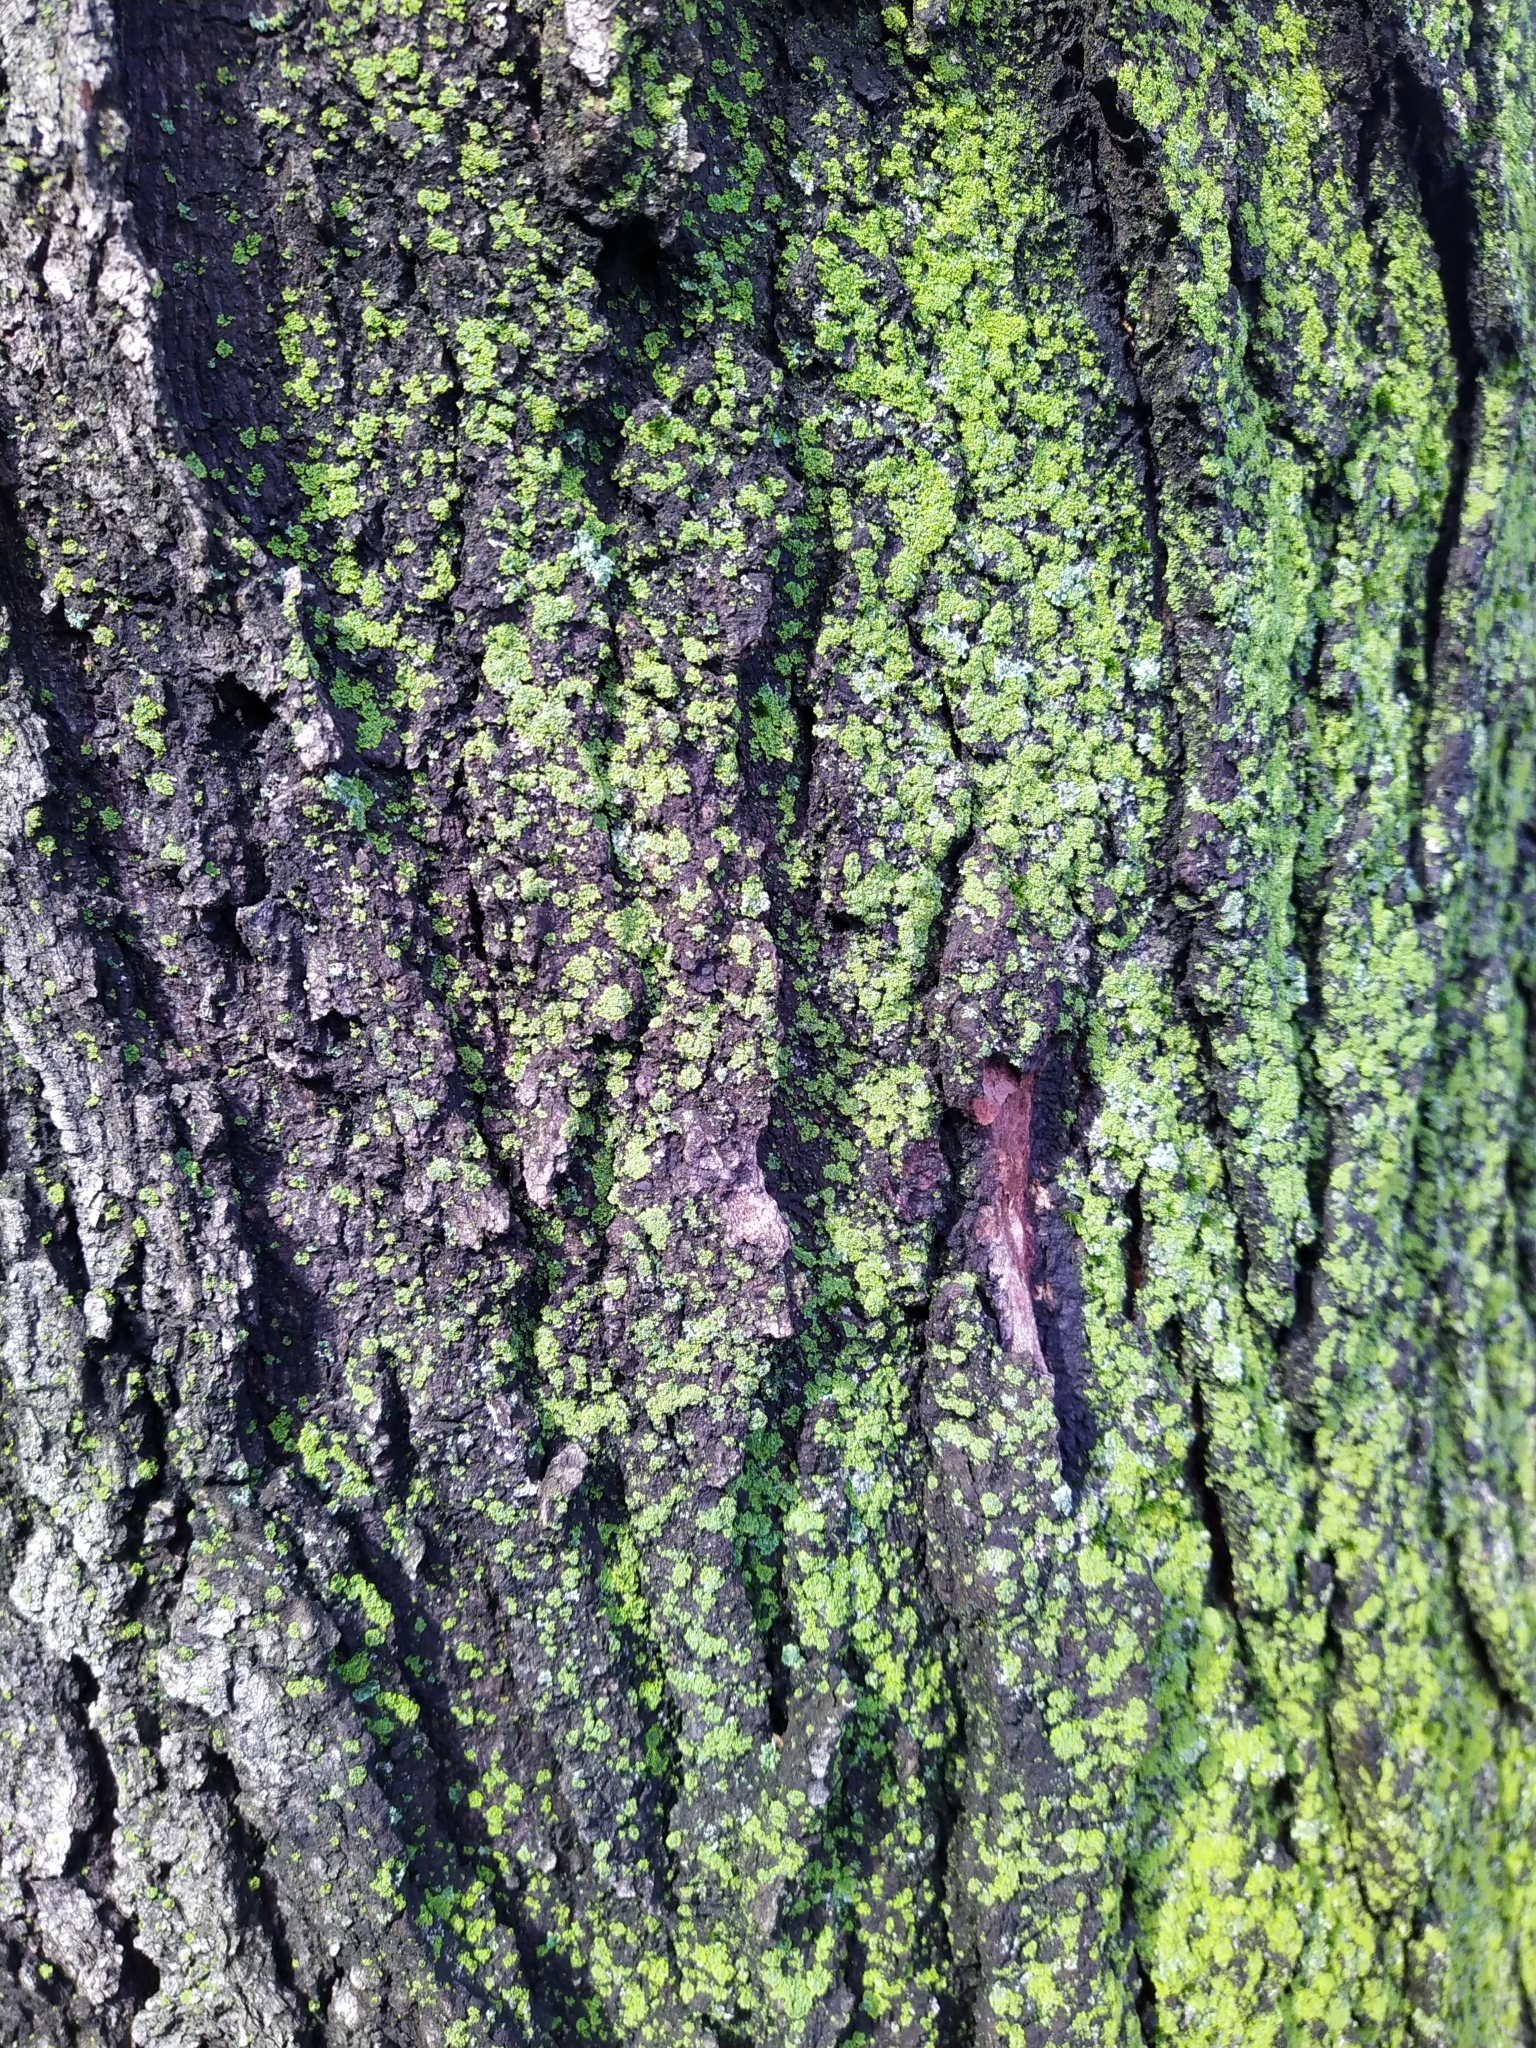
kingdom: Fungi
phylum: Ascomycota
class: Candelariomycetes
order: Candelariales
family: Candelariaceae
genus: Candelaria
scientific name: Candelaria concolor
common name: Candleflame lichen
